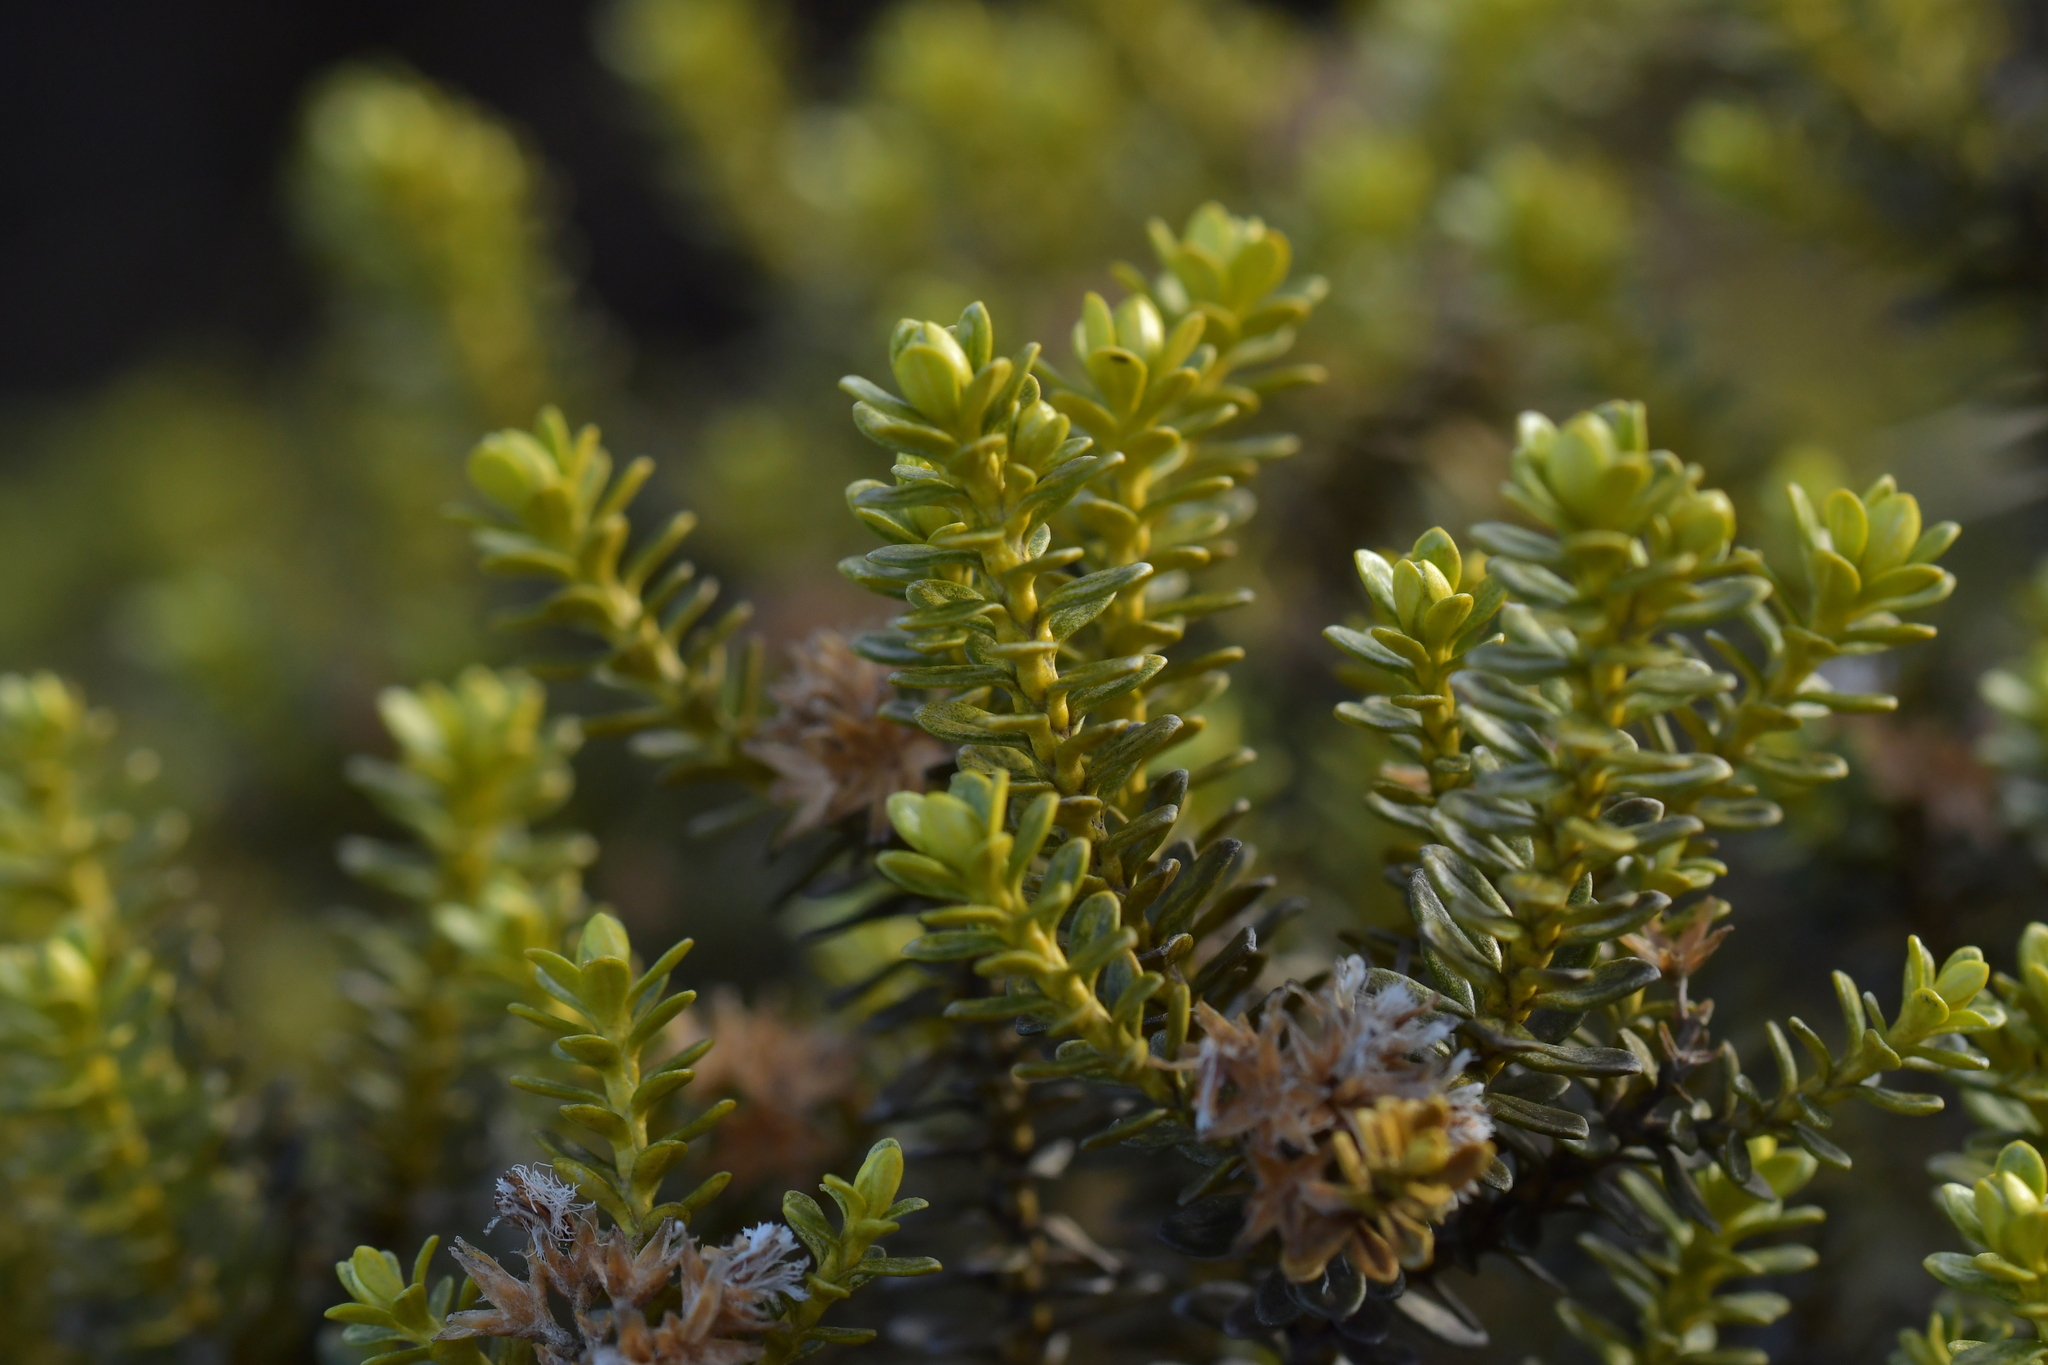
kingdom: Plantae
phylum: Tracheophyta
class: Magnoliopsida
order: Asterales
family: Asteraceae
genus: Ozothamnus
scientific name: Ozothamnus leptophyllus
